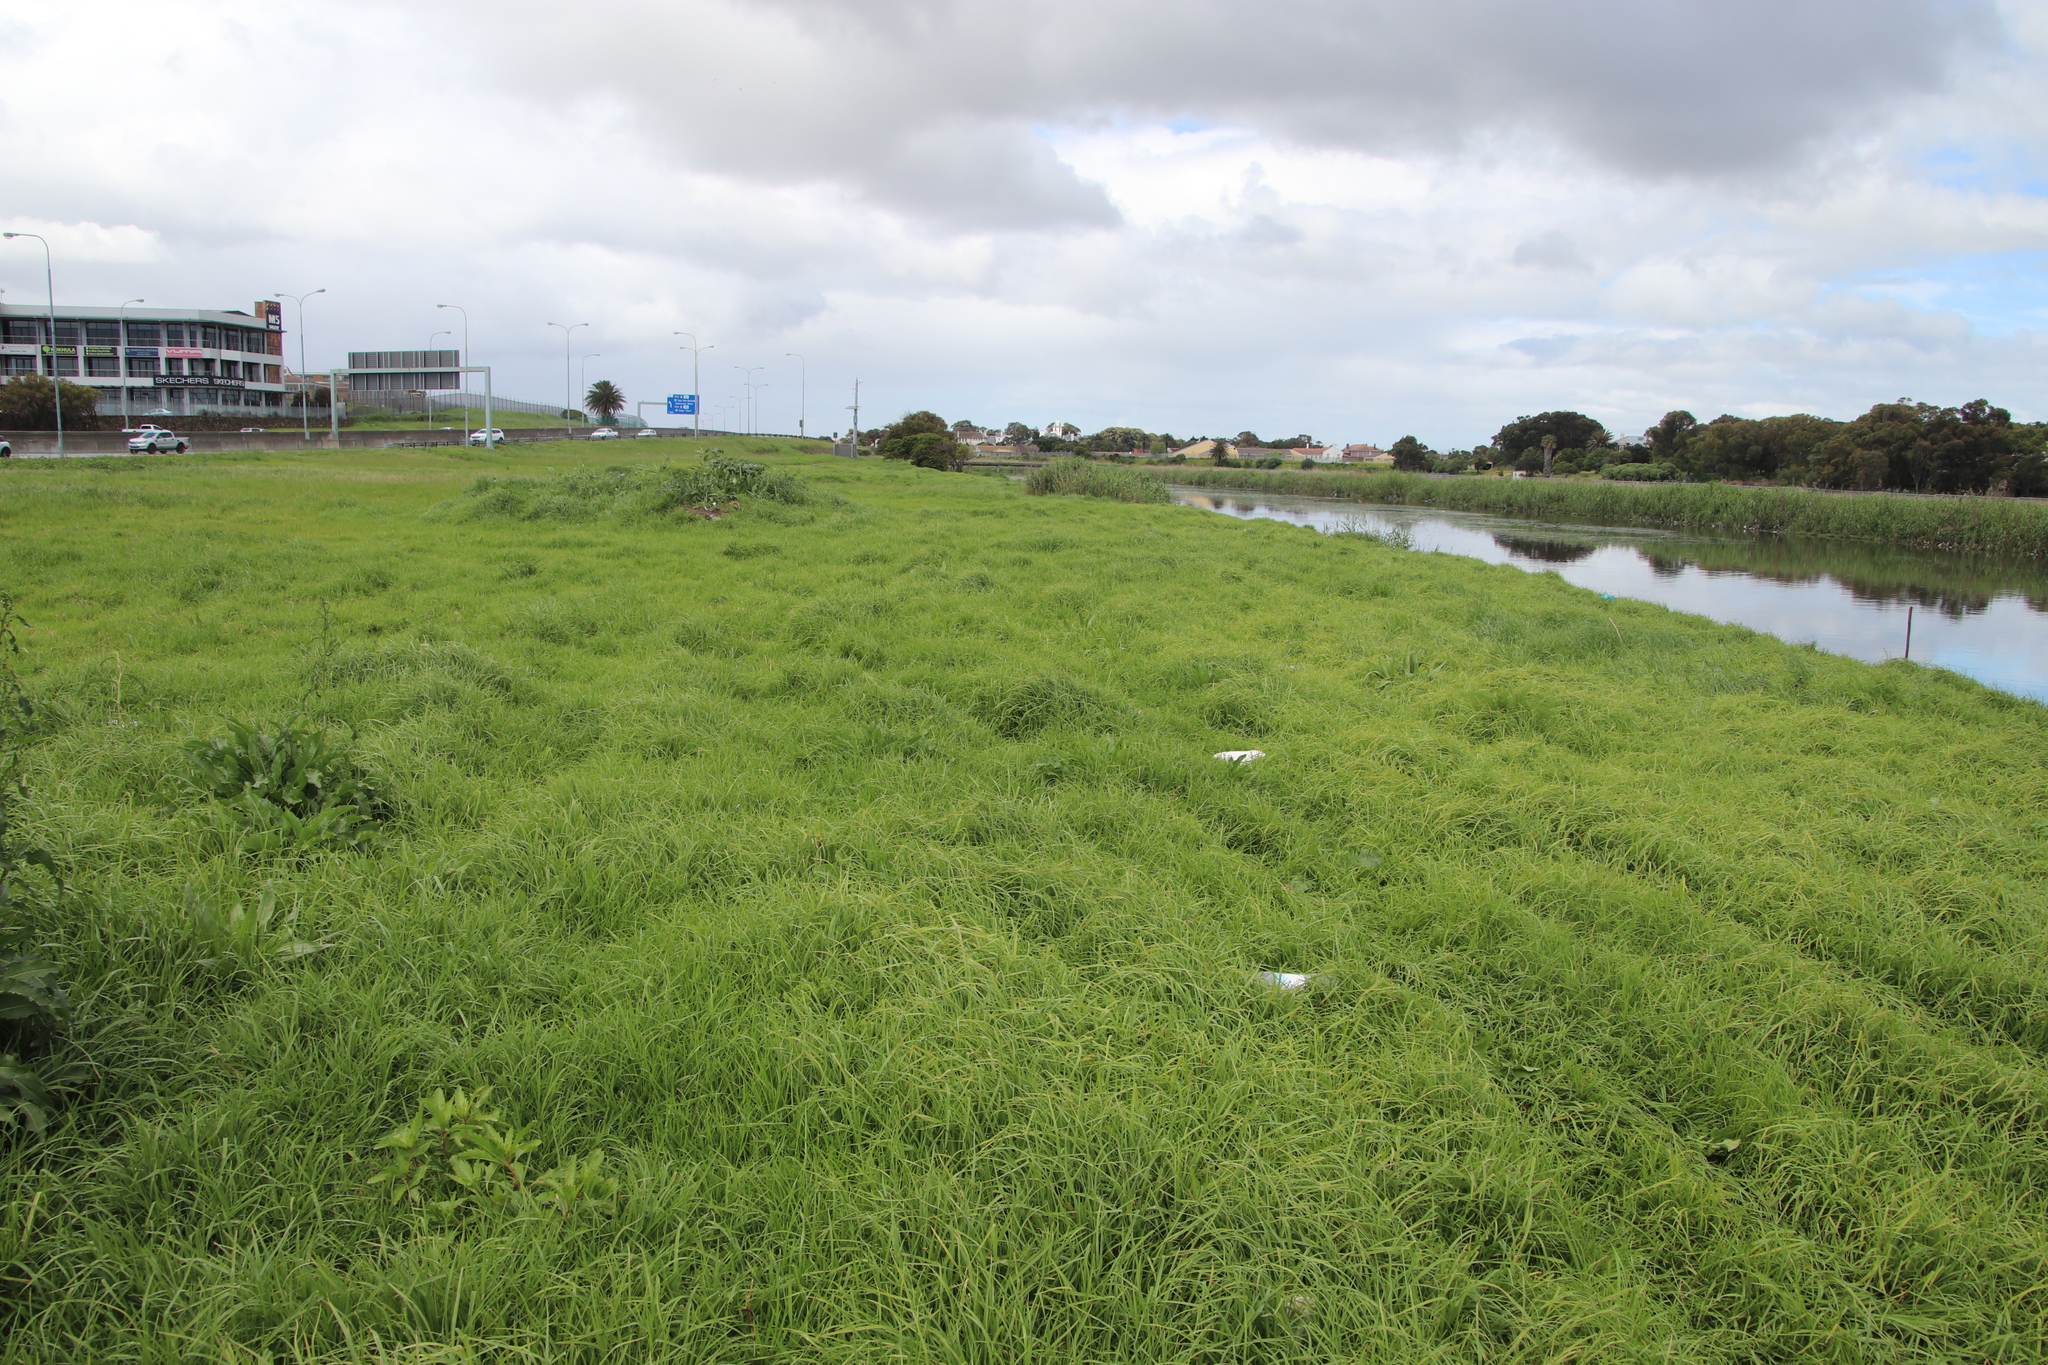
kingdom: Plantae
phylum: Tracheophyta
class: Liliopsida
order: Poales
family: Poaceae
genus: Cenchrus
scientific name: Cenchrus clandestinus
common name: Kikuyugrass
